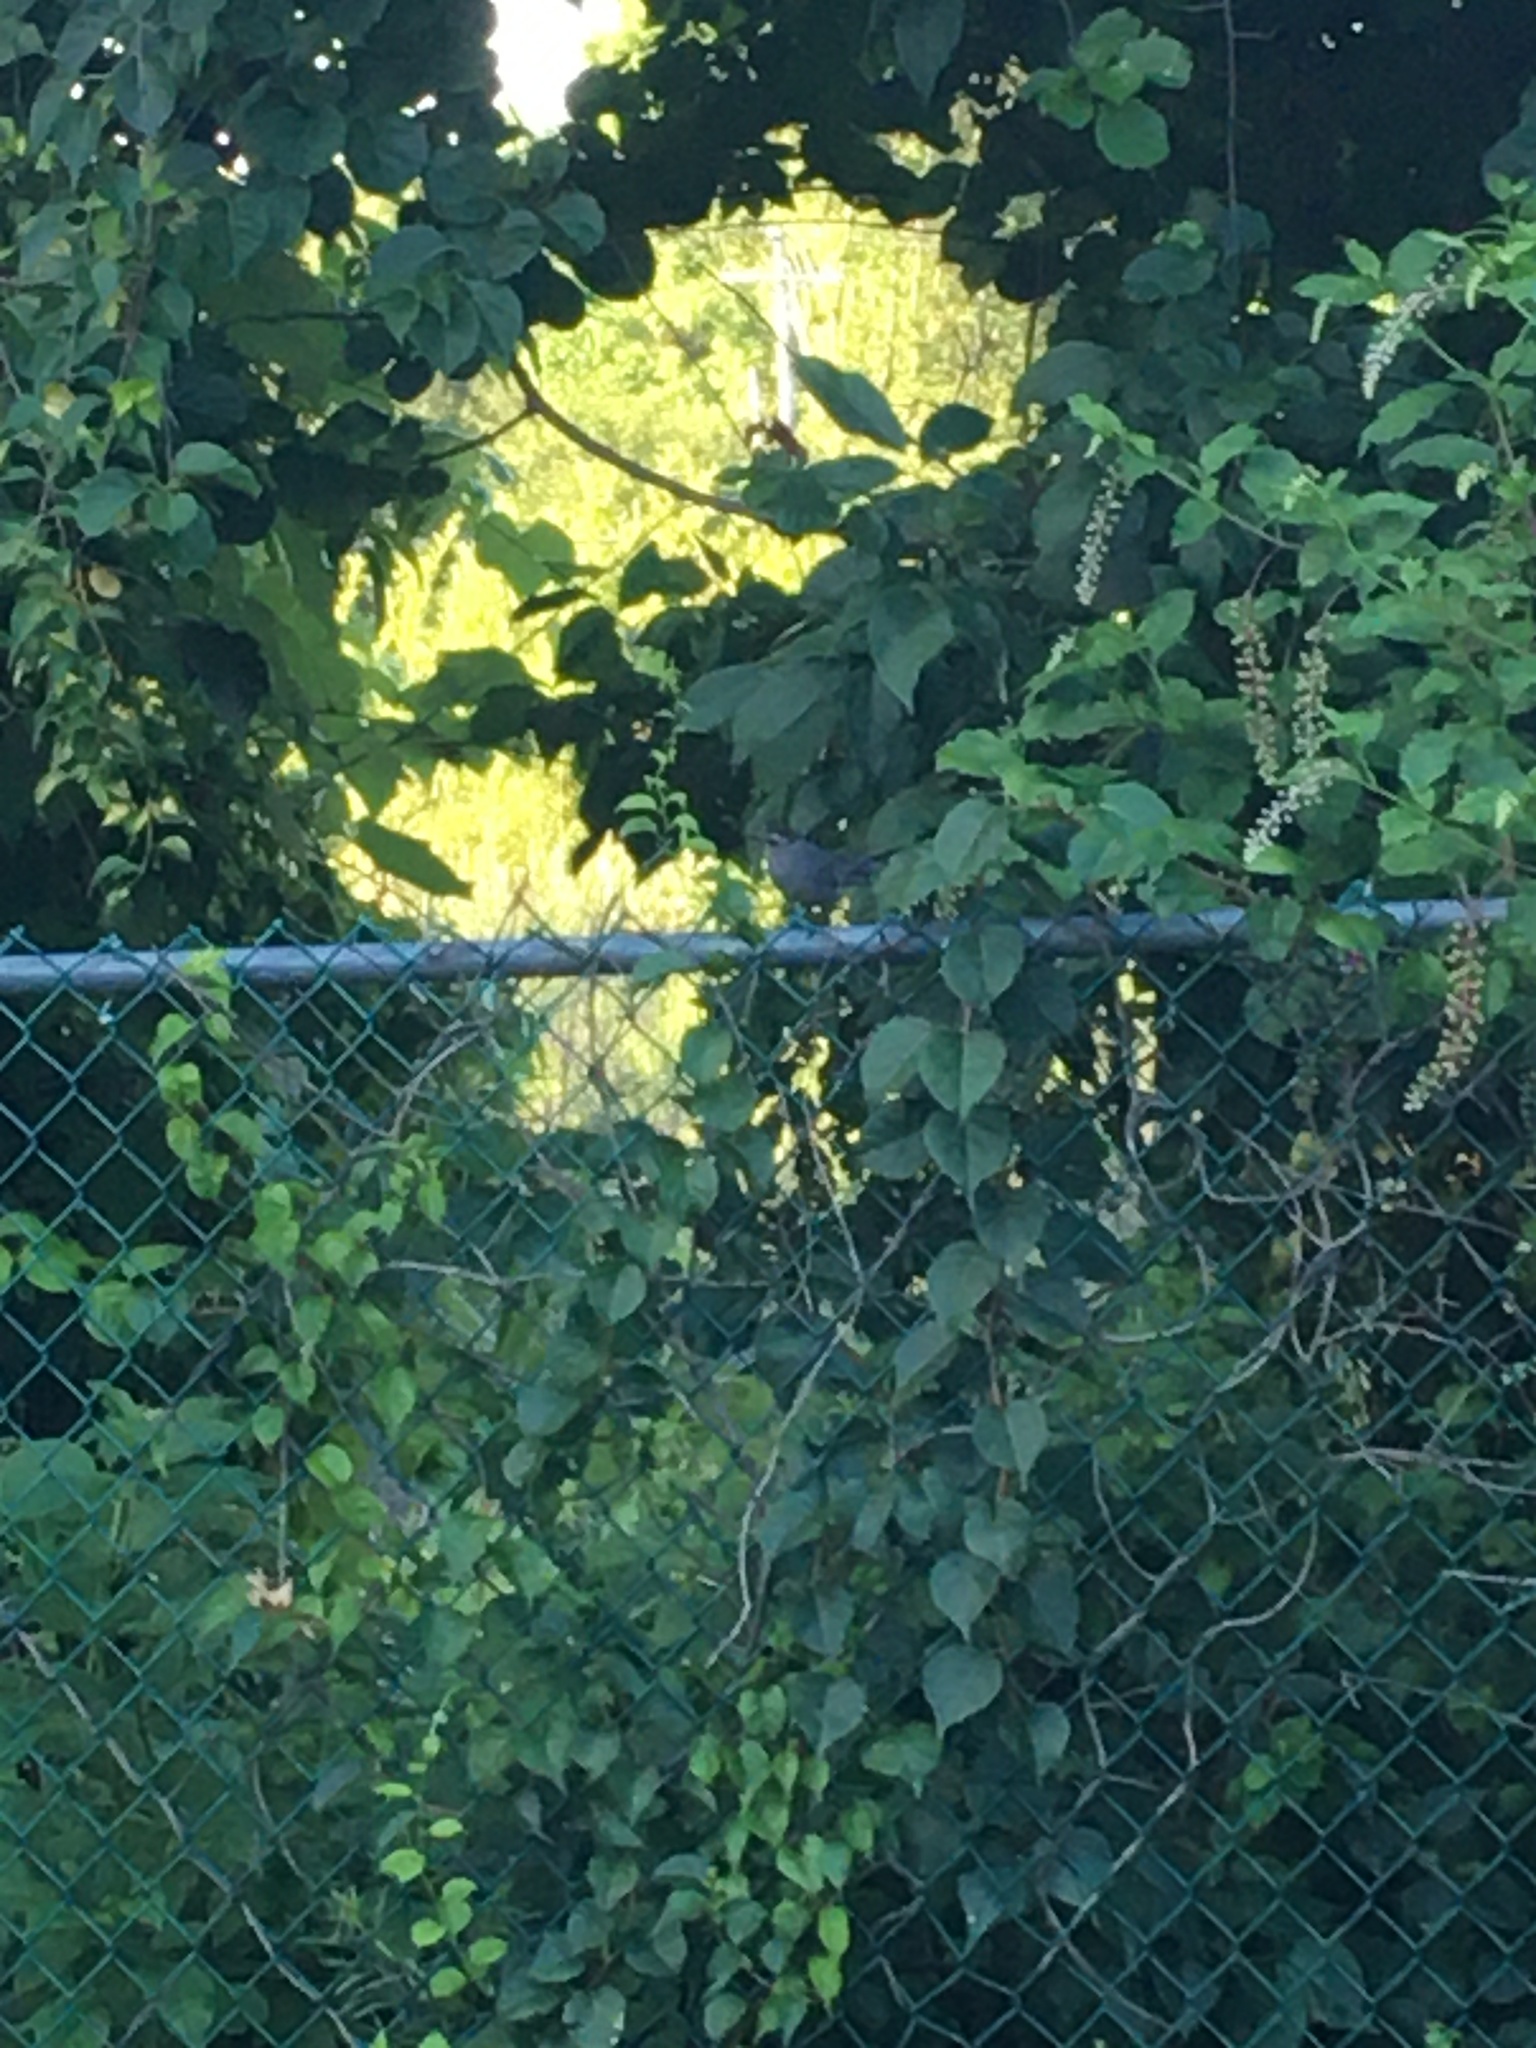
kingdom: Animalia
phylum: Chordata
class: Aves
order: Passeriformes
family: Mimidae
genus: Dumetella
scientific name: Dumetella carolinensis
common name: Gray catbird
